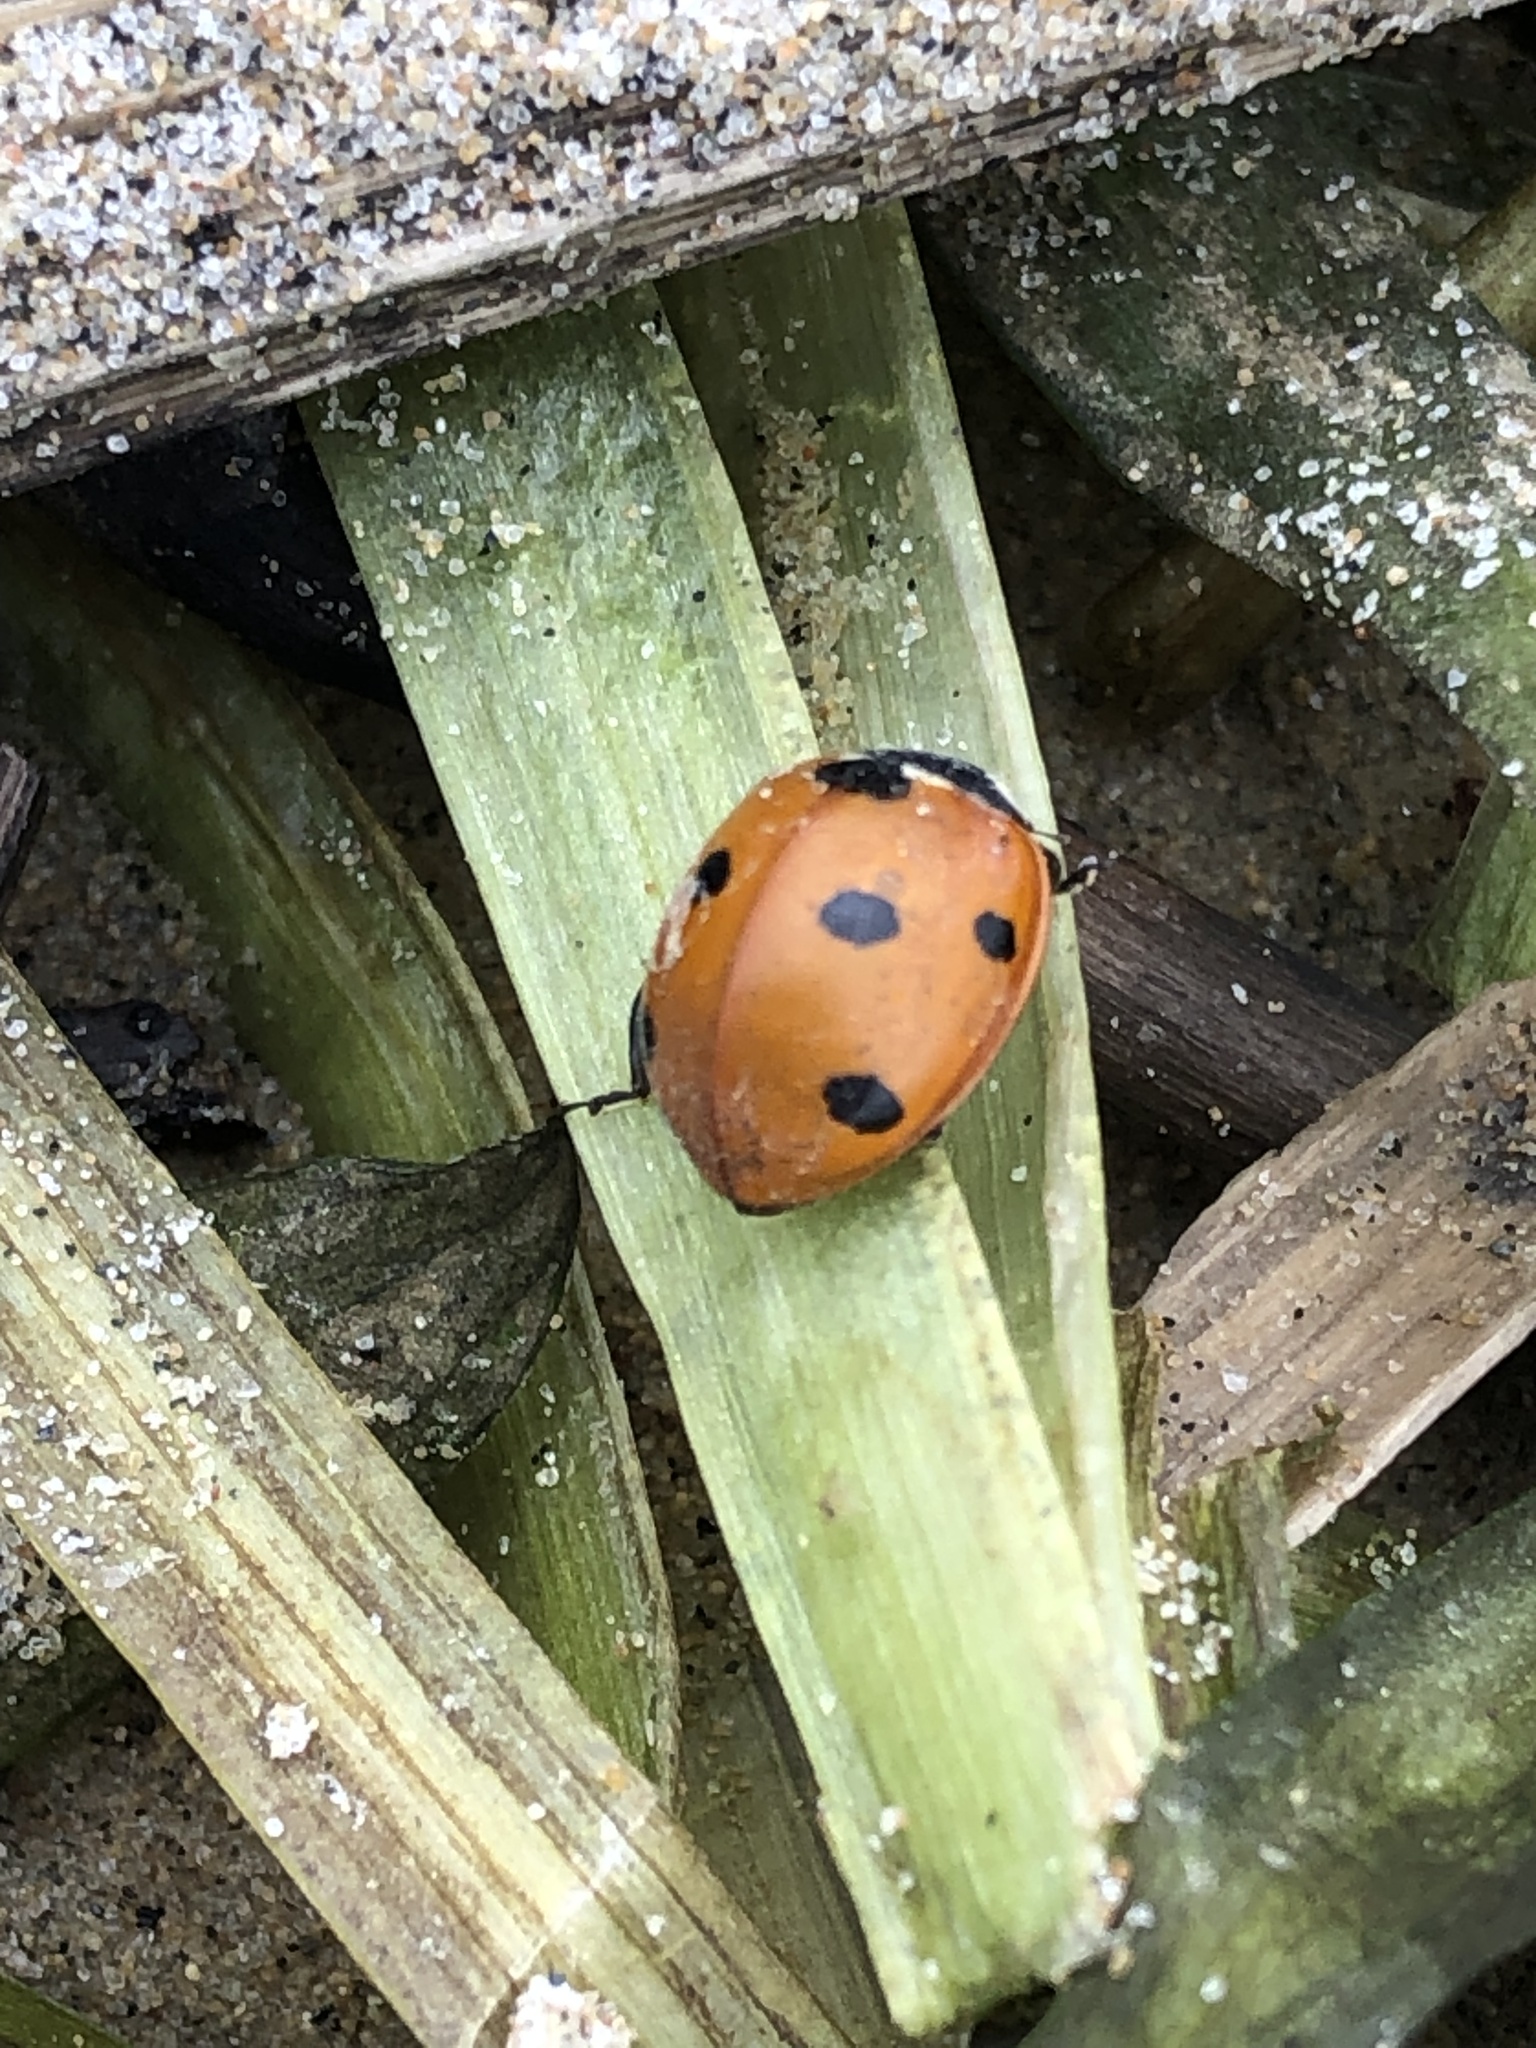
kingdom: Animalia
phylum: Arthropoda
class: Insecta
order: Coleoptera
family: Coccinellidae
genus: Coccinella
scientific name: Coccinella septempunctata
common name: Sevenspotted lady beetle
